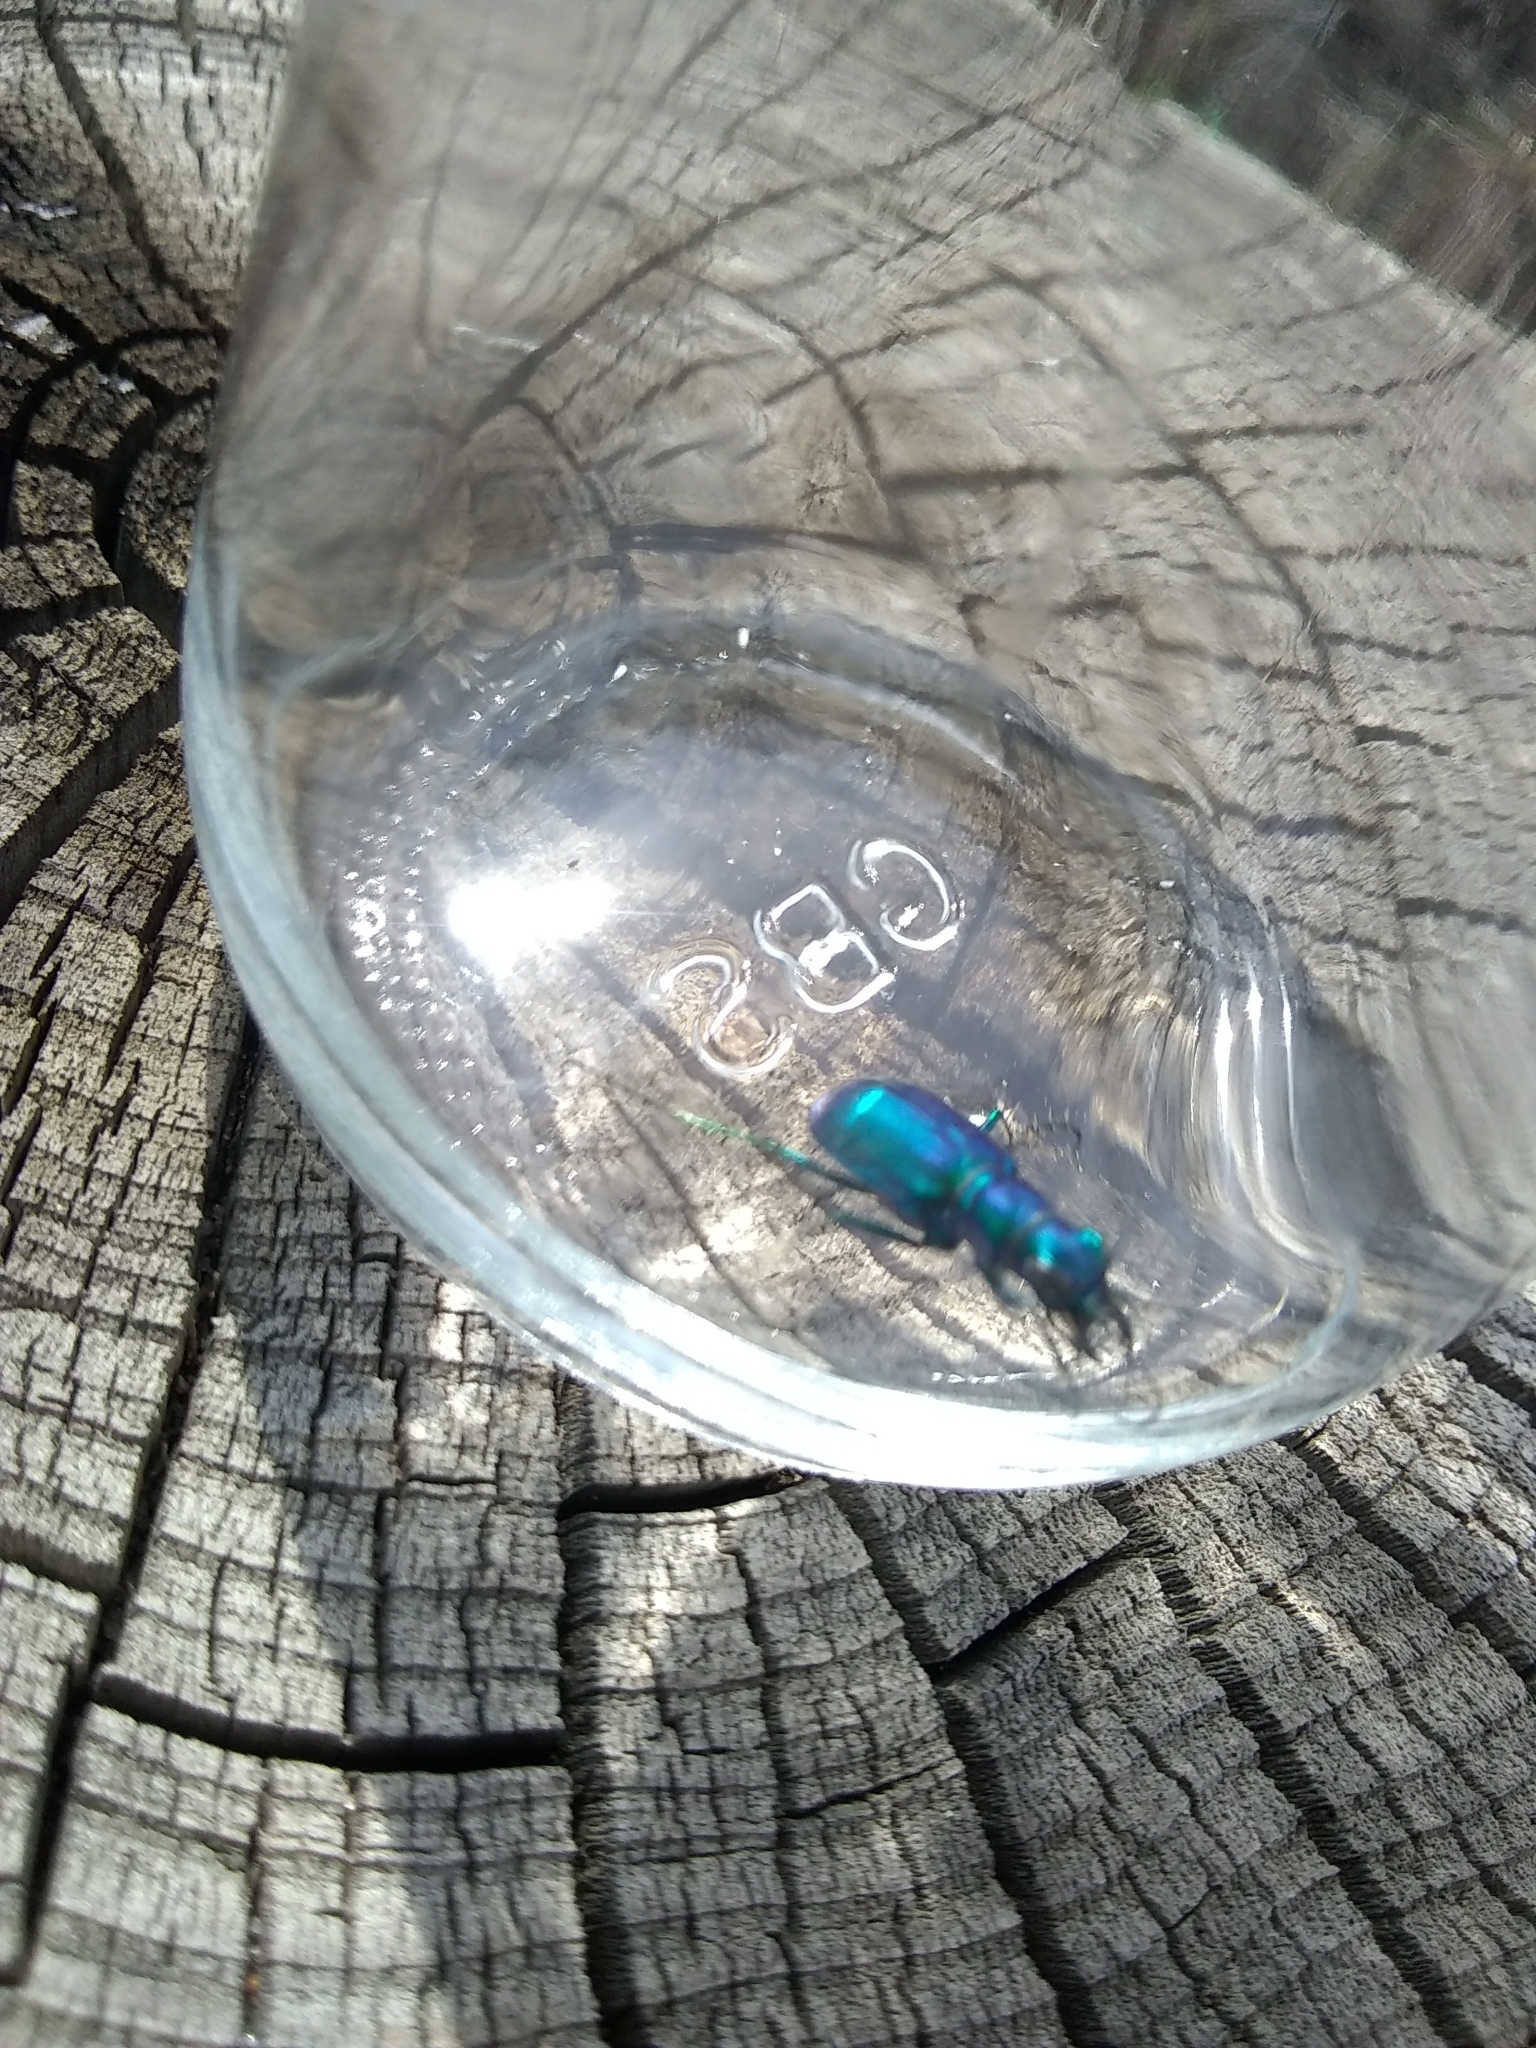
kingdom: Animalia
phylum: Arthropoda
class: Insecta
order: Coleoptera
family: Carabidae
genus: Cicindela
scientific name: Cicindela scutellaris
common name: Festive tiger beetle
